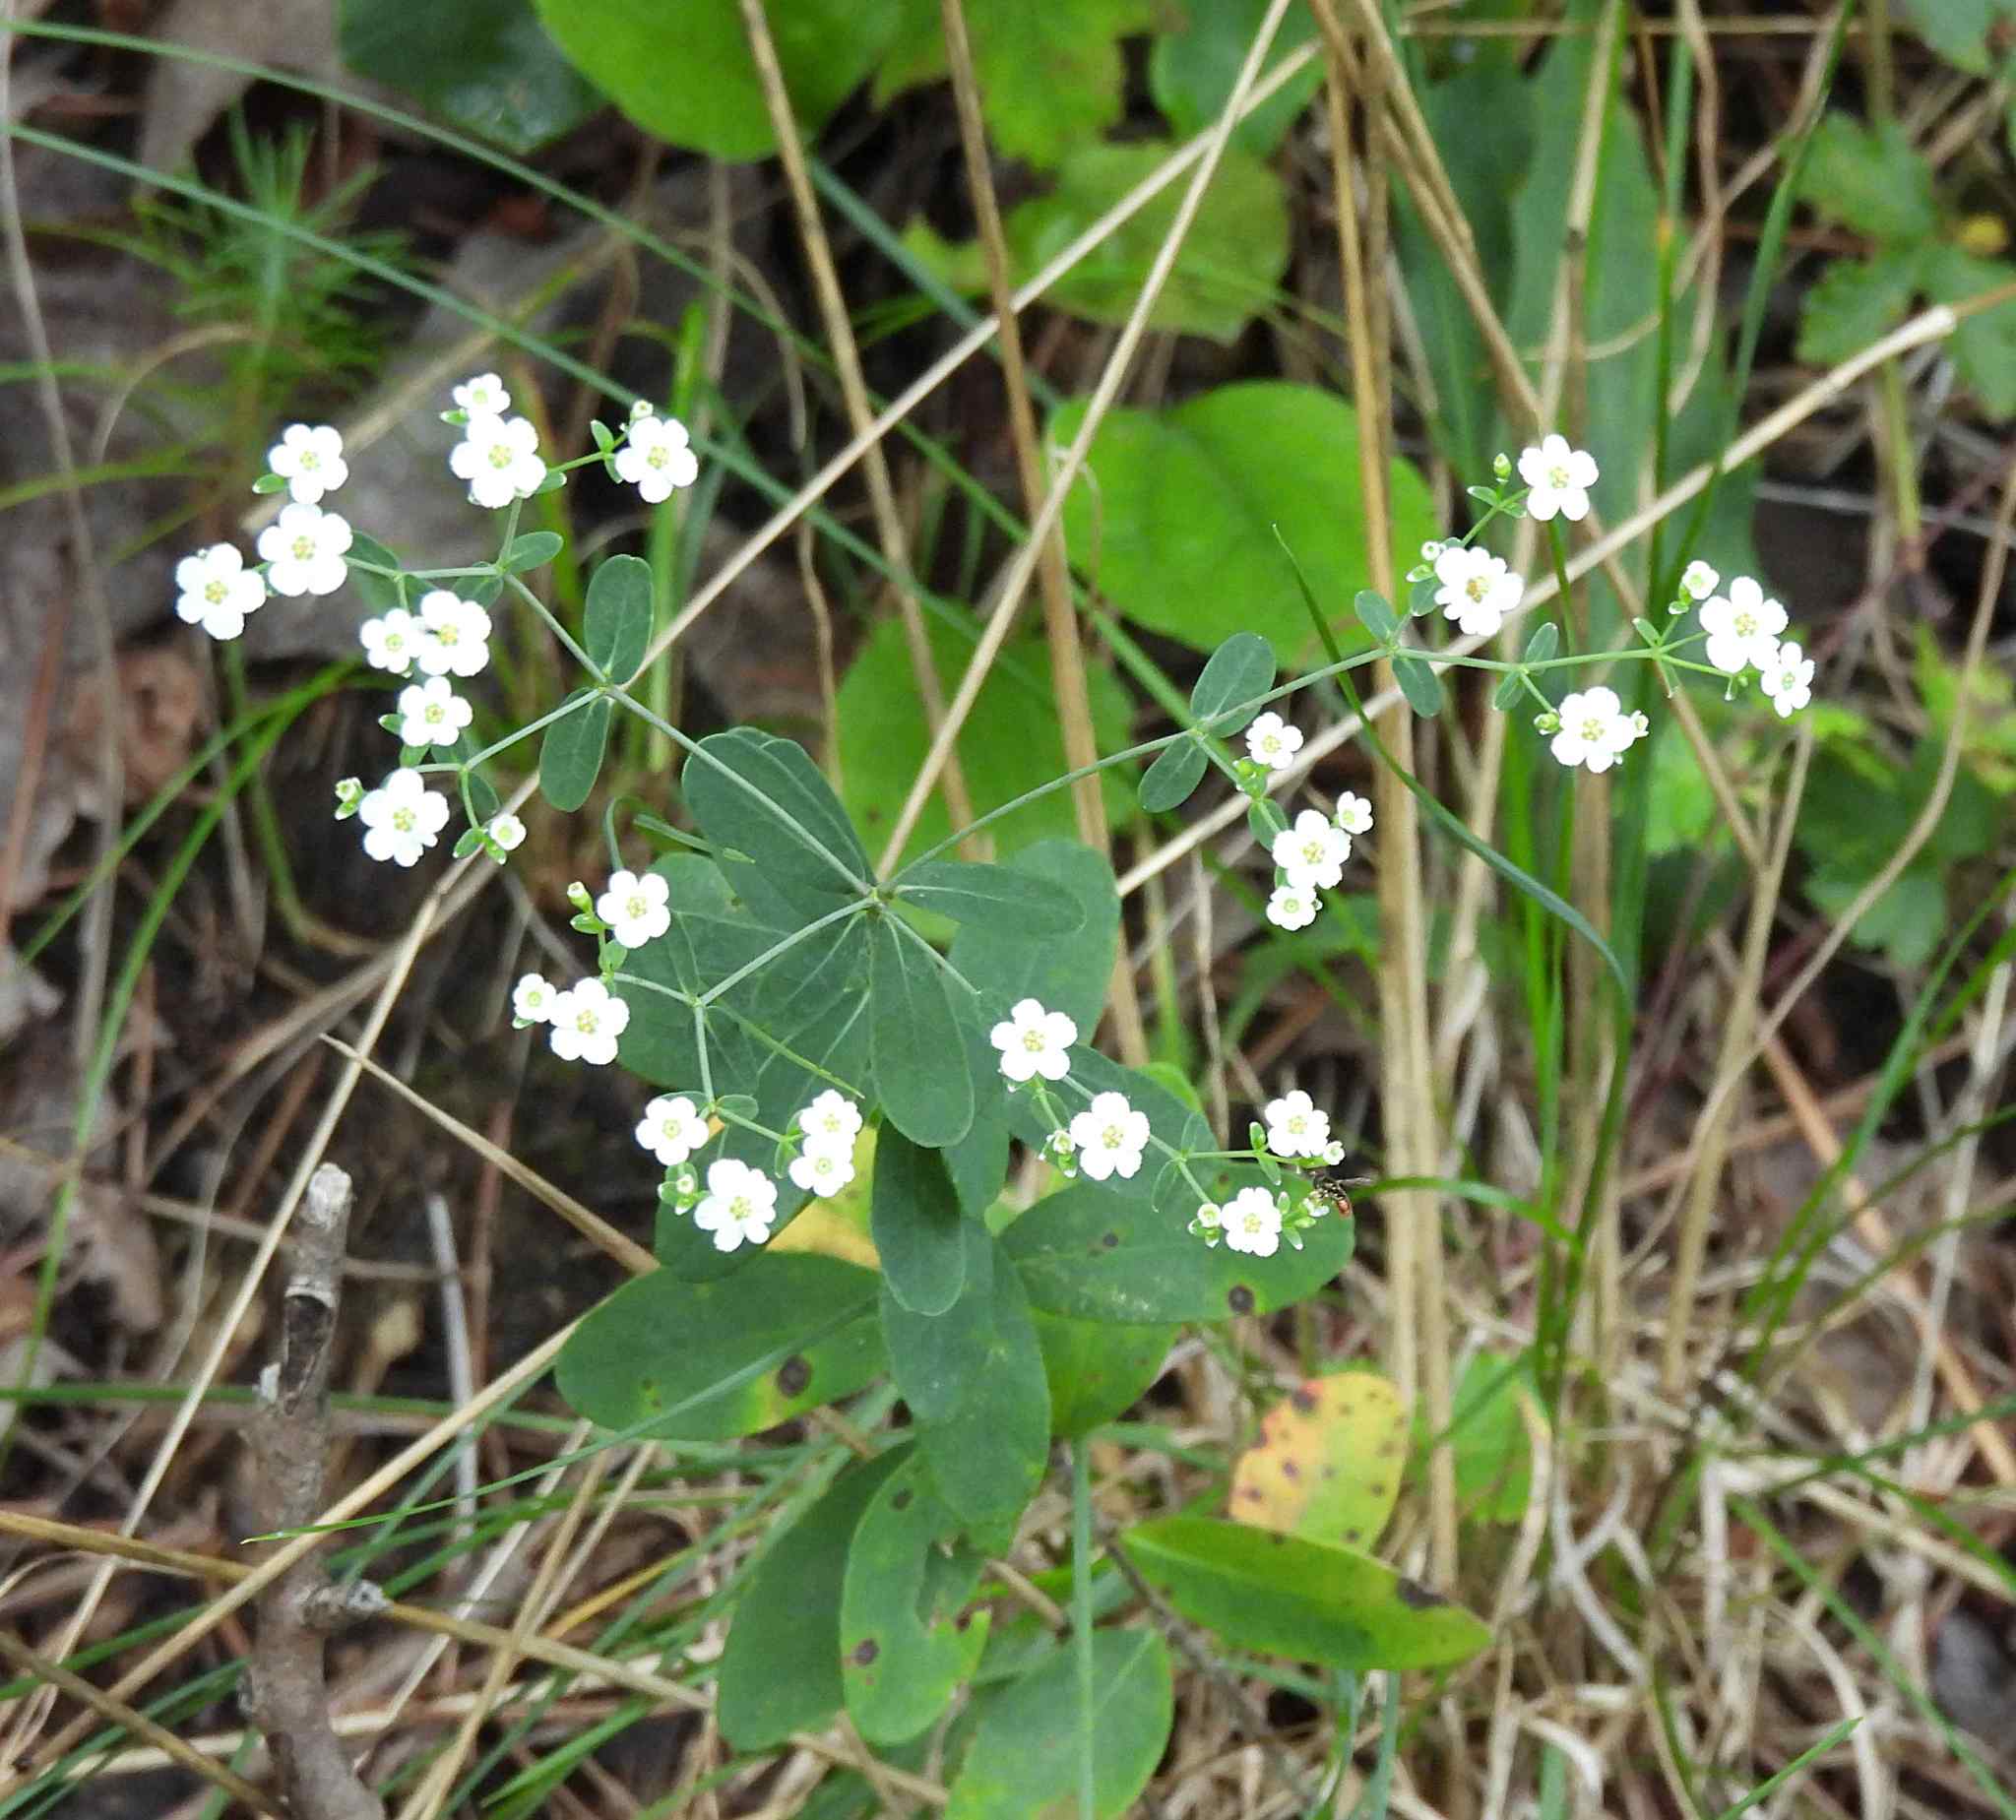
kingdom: Plantae
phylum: Tracheophyta
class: Magnoliopsida
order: Malpighiales
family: Euphorbiaceae
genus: Euphorbia
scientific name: Euphorbia corollata
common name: Flowering spurge
